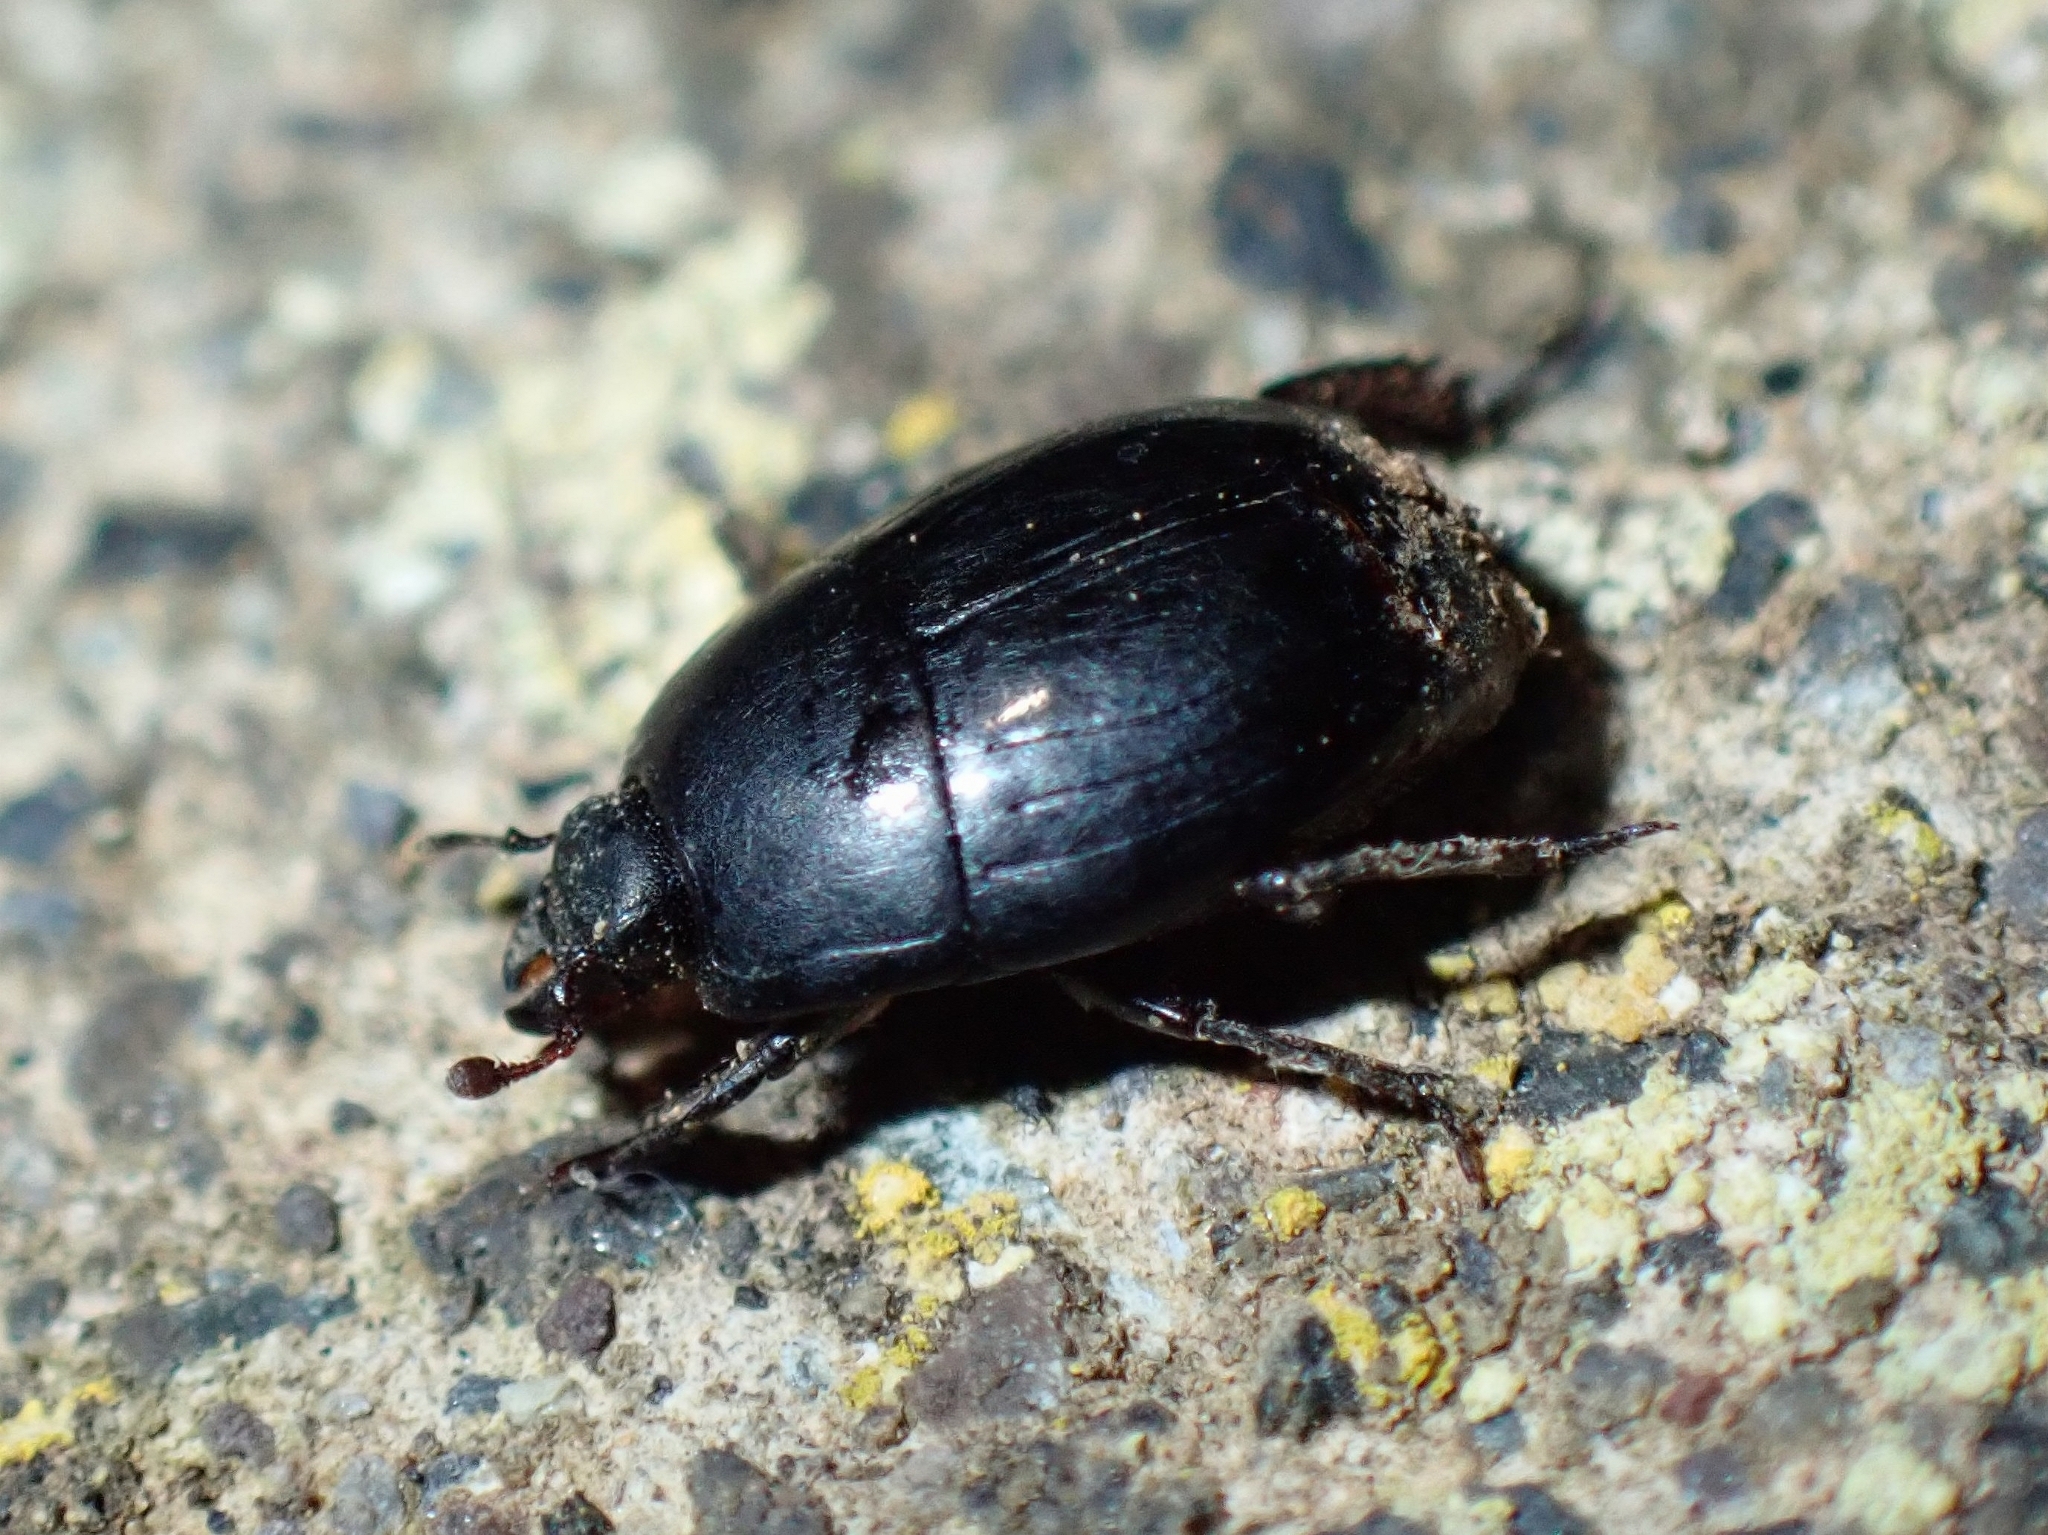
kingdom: Animalia
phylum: Arthropoda
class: Insecta
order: Coleoptera
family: Histeridae
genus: Hister
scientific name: Hister canariensis
